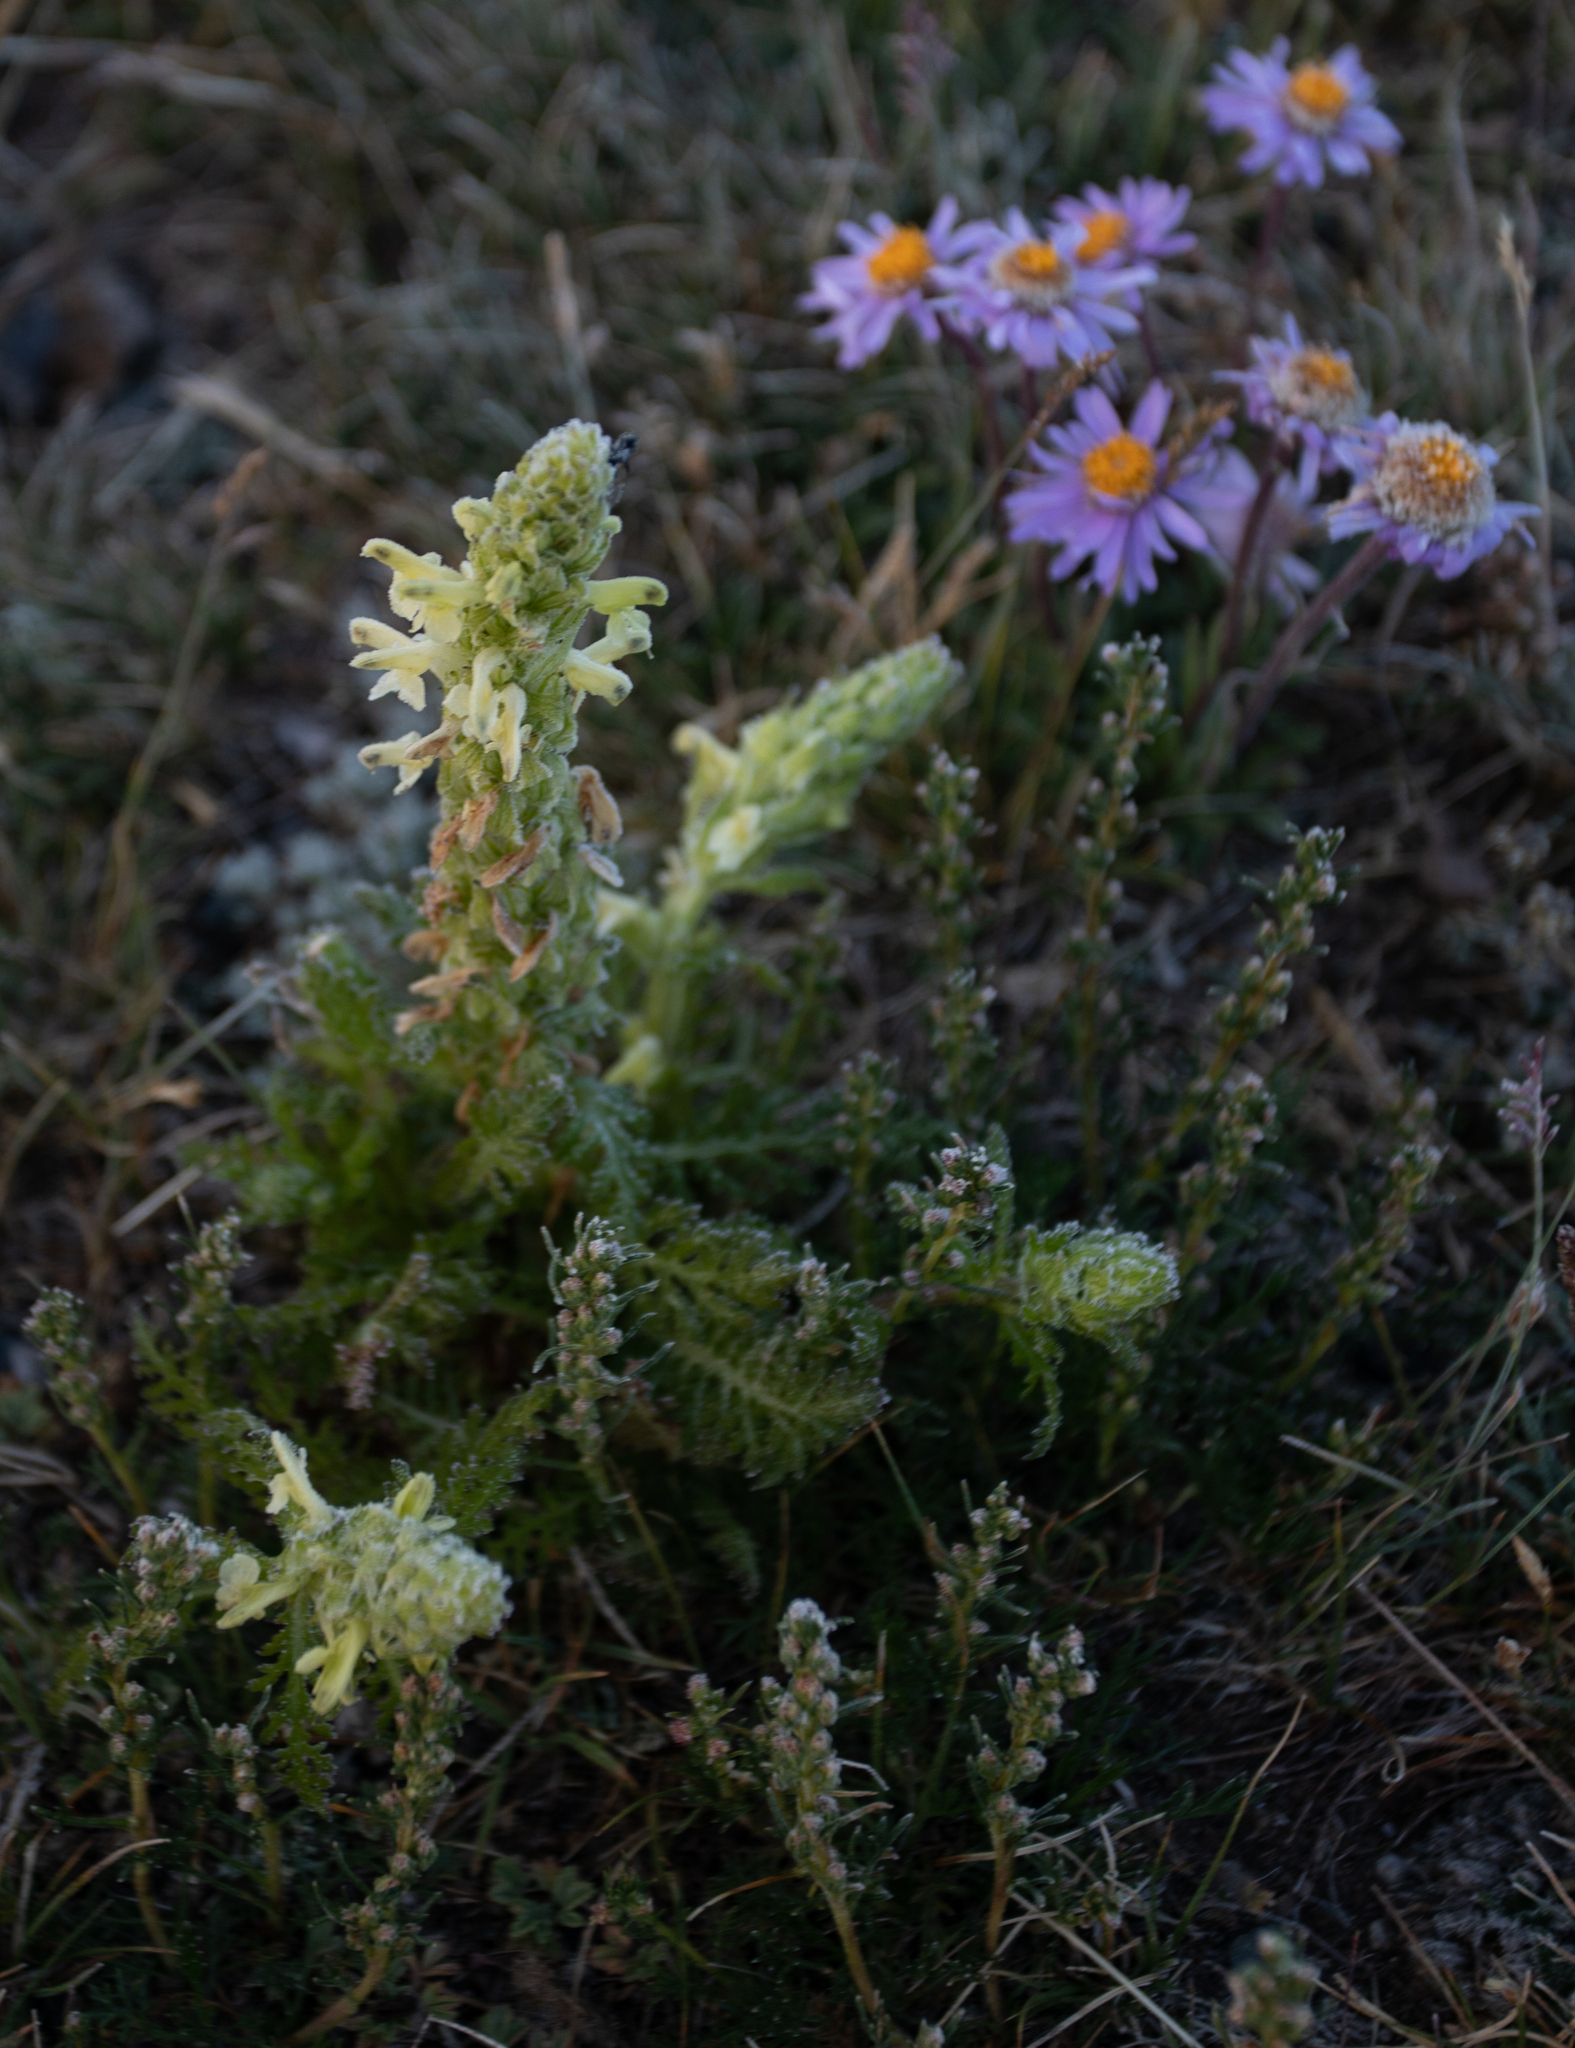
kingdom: Plantae
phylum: Tracheophyta
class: Magnoliopsida
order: Lamiales
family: Orobanchaceae
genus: Pedicularis
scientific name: Pedicularis abrotanifolia
